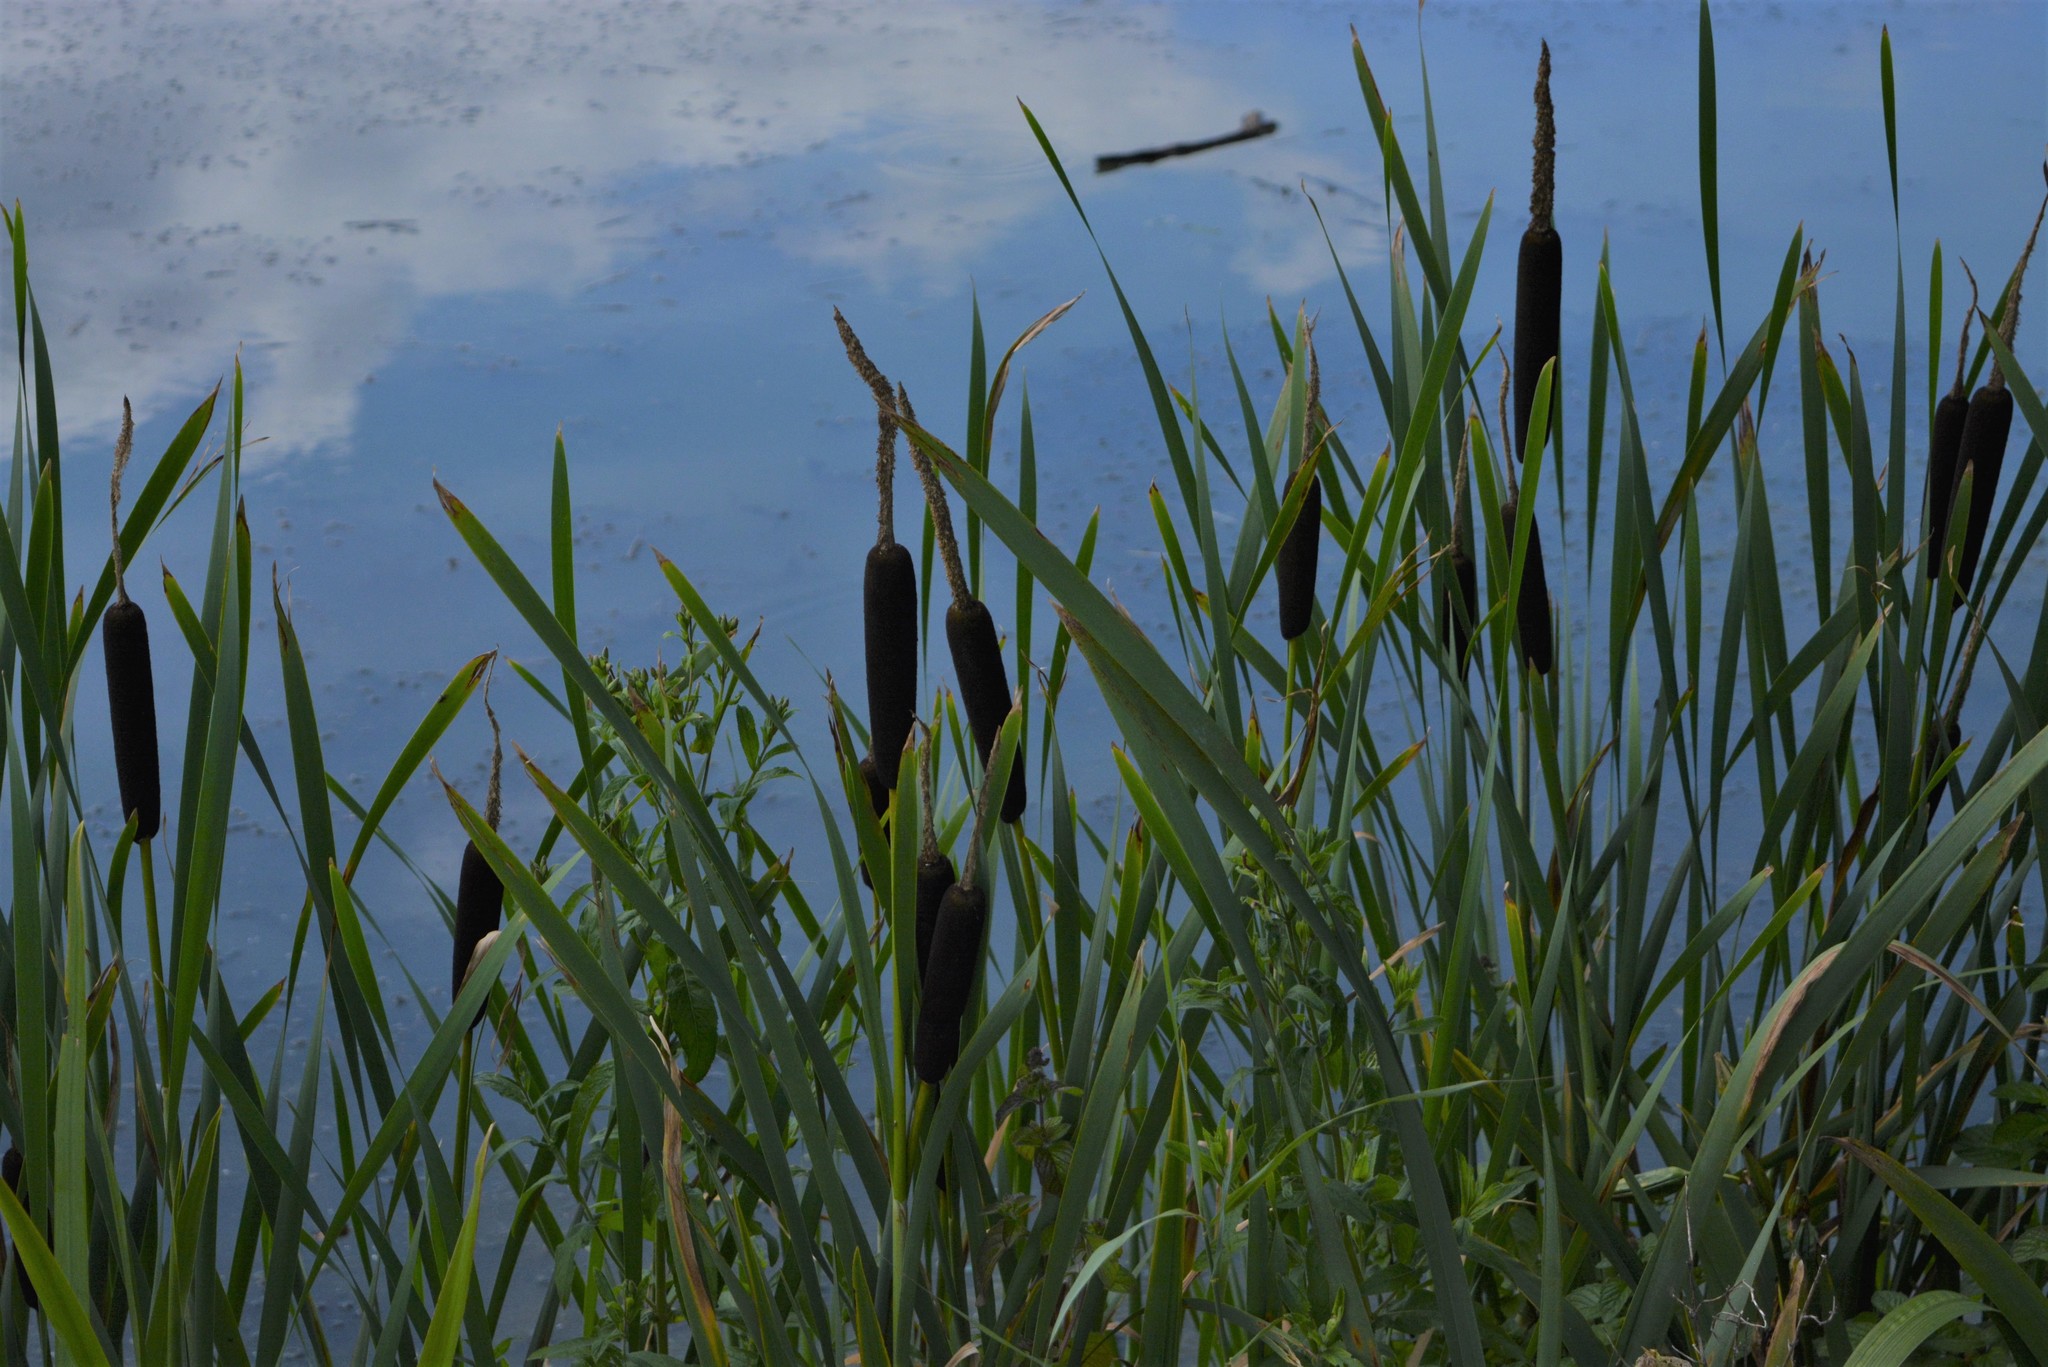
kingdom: Plantae
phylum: Tracheophyta
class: Liliopsida
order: Poales
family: Typhaceae
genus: Typha
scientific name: Typha latifolia
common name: Broadleaf cattail
